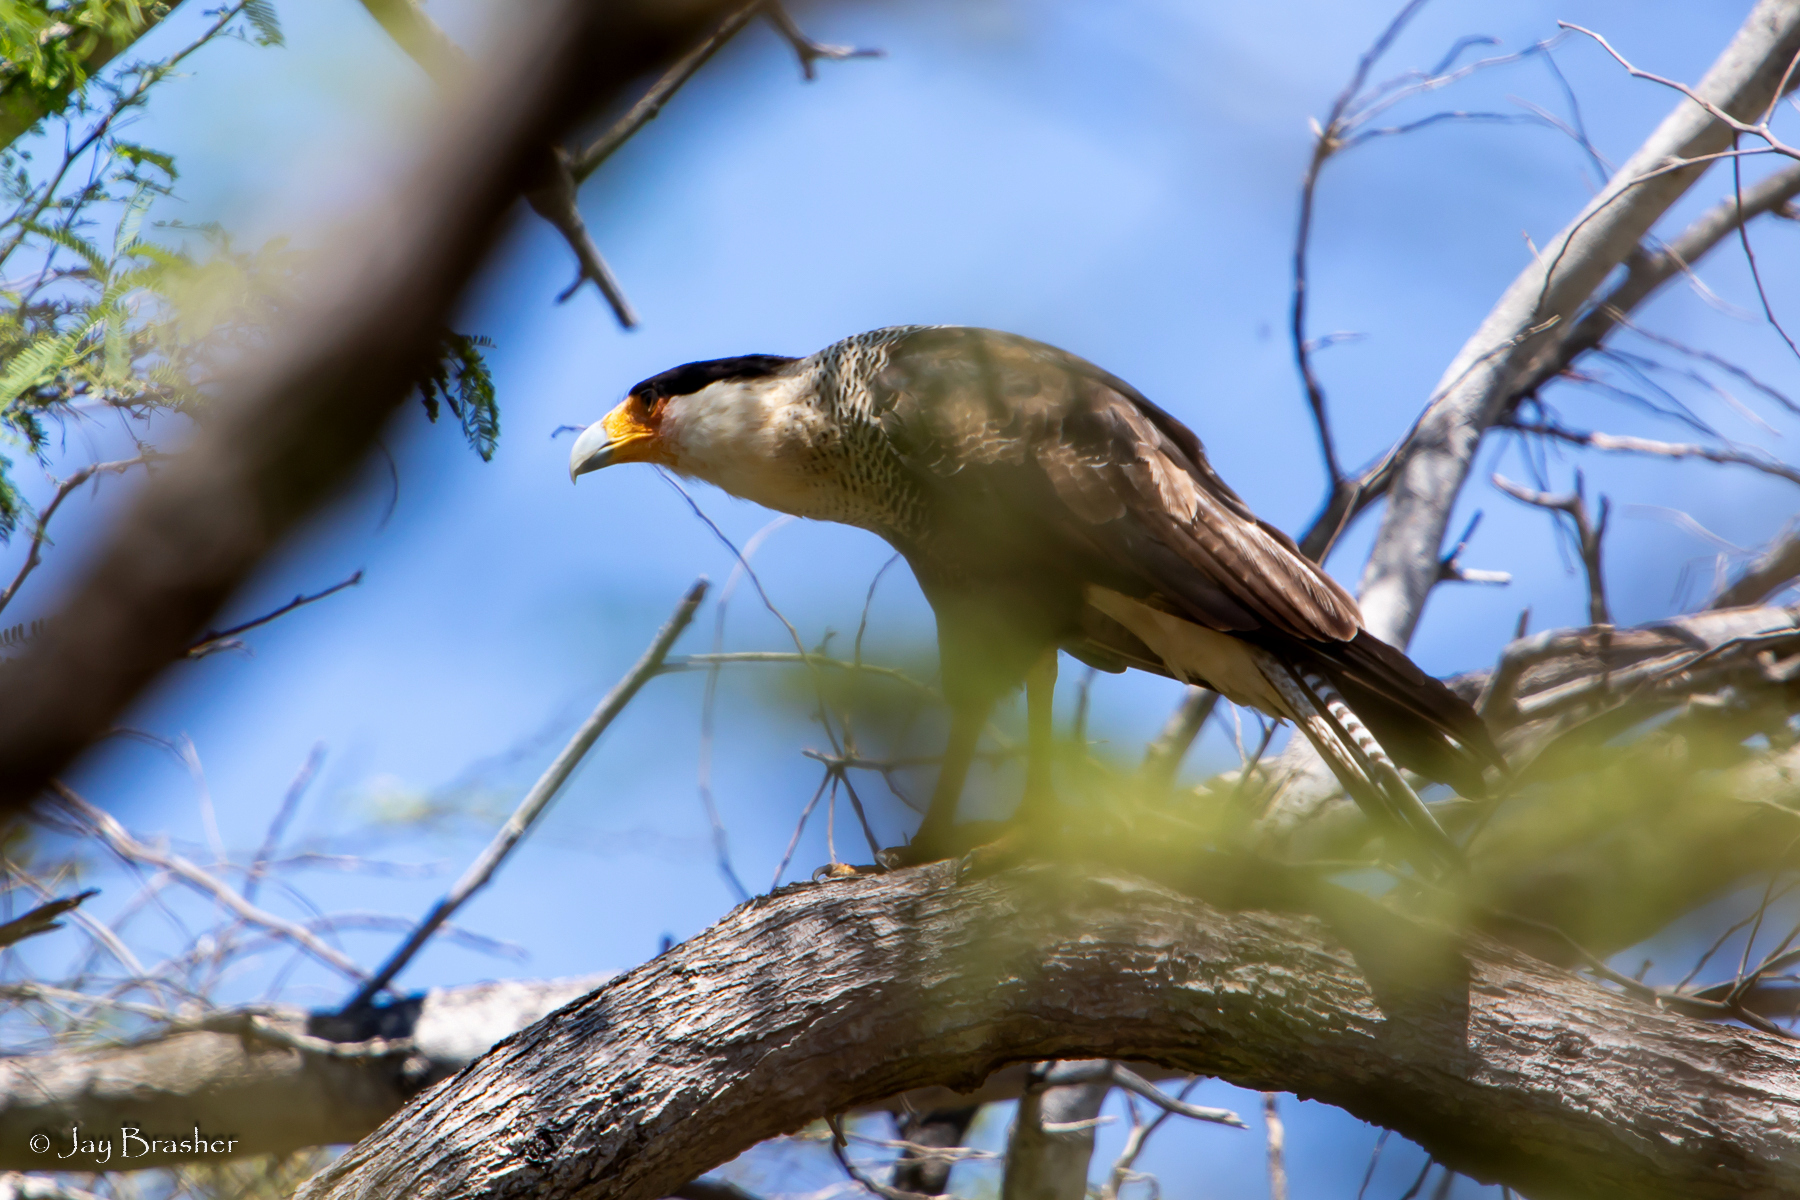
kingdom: Animalia
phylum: Chordata
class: Aves
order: Falconiformes
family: Falconidae
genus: Caracara
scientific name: Caracara plancus
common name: Southern caracara
